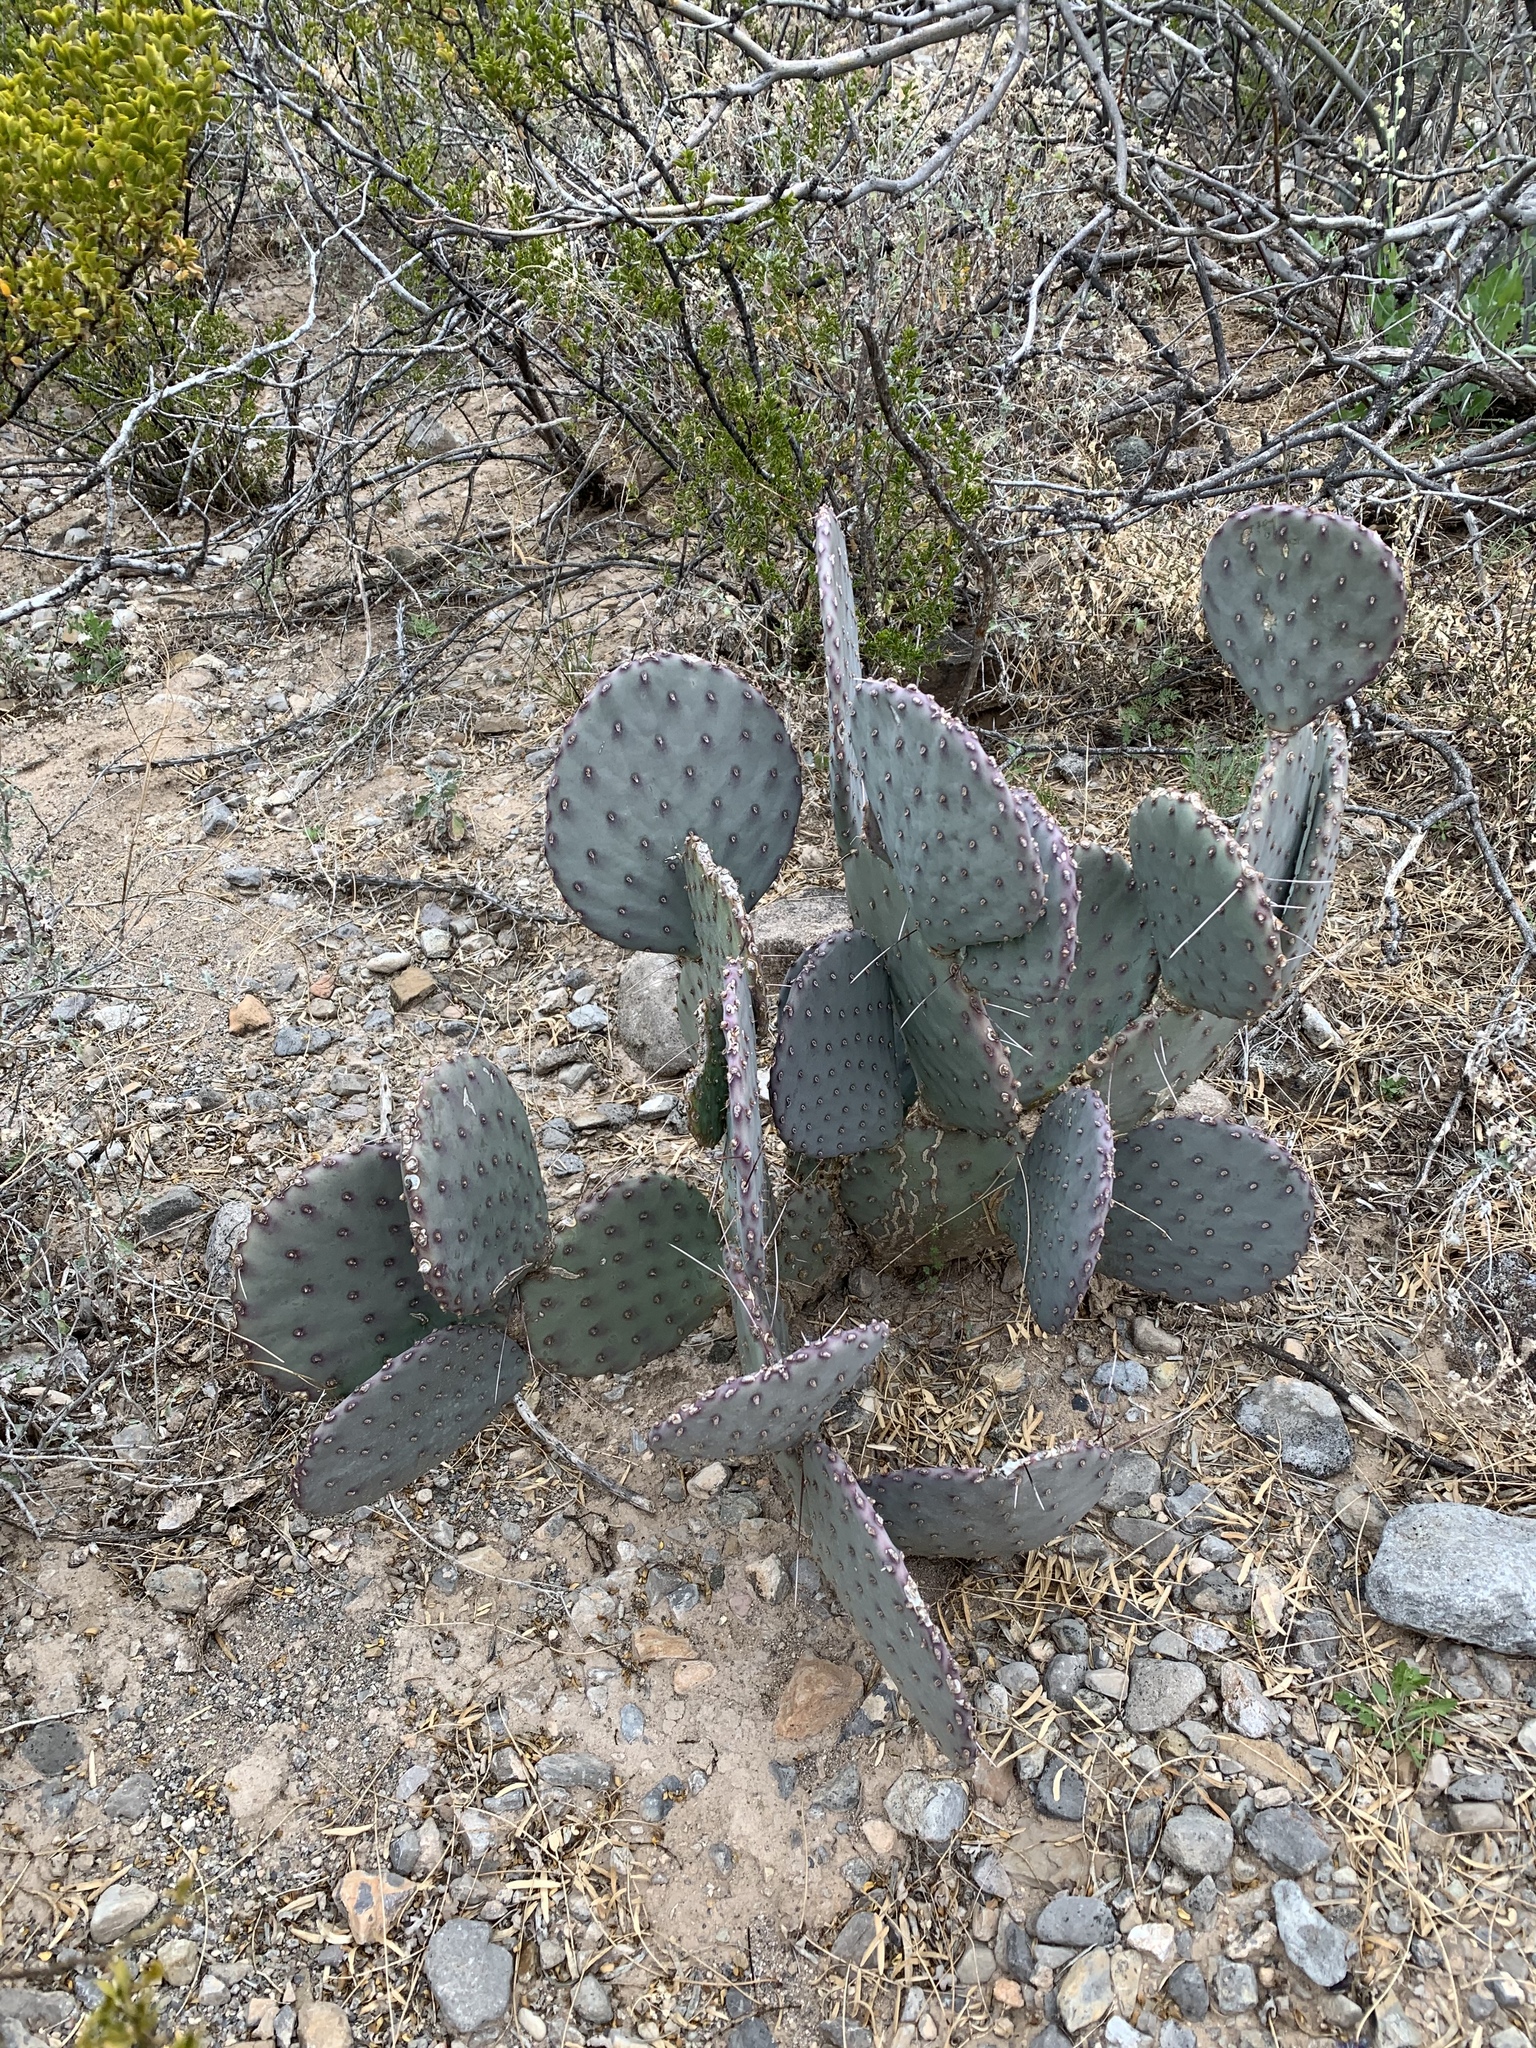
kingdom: Plantae
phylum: Tracheophyta
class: Magnoliopsida
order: Caryophyllales
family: Cactaceae
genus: Opuntia
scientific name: Opuntia macrocentra
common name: Purple prickly-pear
